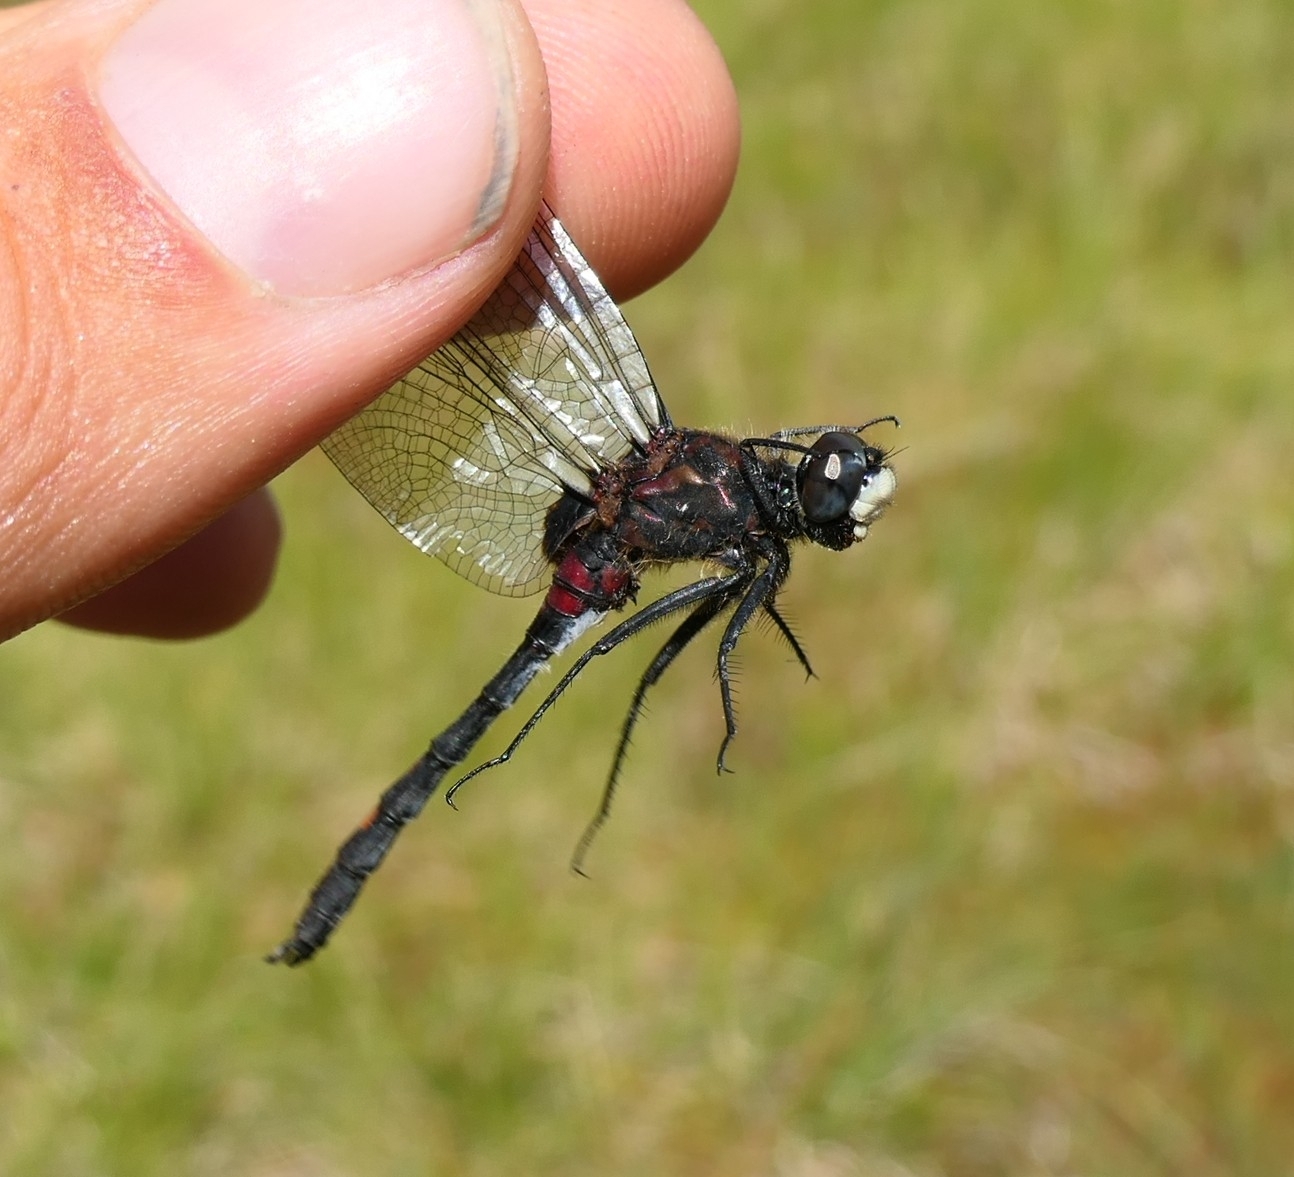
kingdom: Animalia
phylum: Arthropoda
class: Insecta
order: Odonata
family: Libellulidae
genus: Leucorrhinia
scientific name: Leucorrhinia dubia
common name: White-faced darter
